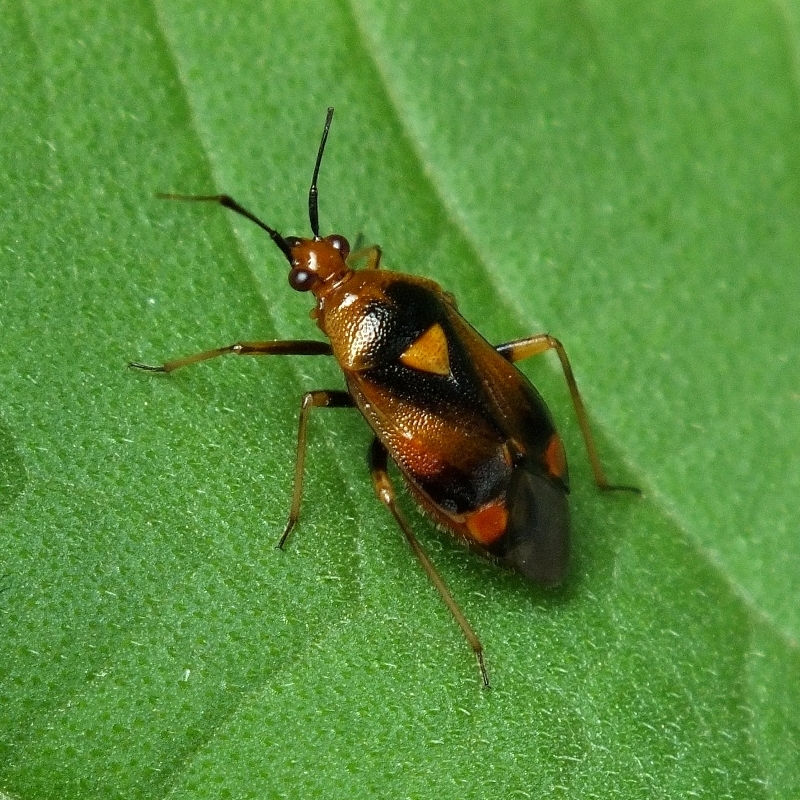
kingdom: Animalia
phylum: Arthropoda
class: Insecta
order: Hemiptera
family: Miridae
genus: Deraeocoris
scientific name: Deraeocoris ruber
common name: Plant bug
